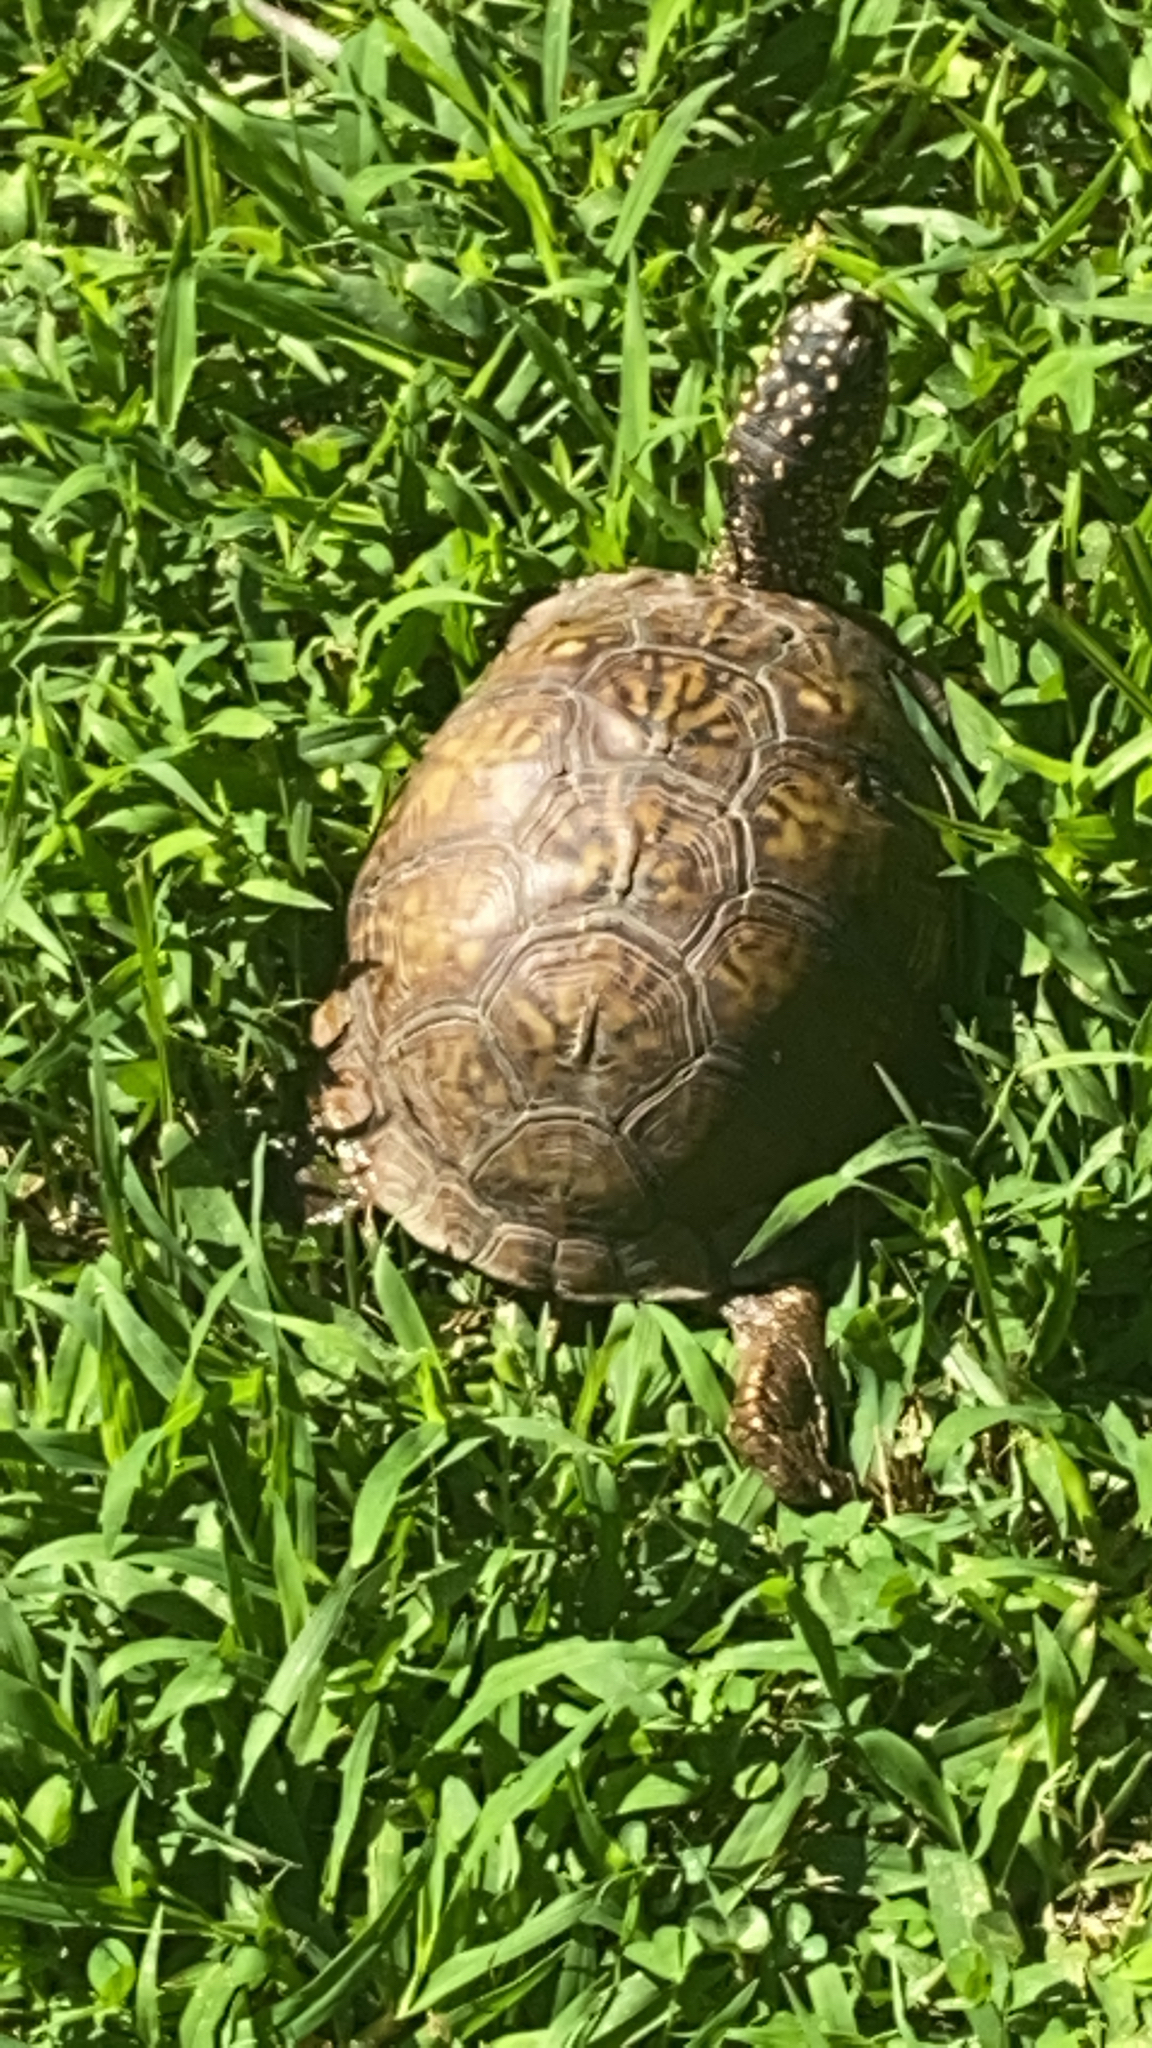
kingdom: Animalia
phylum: Chordata
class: Testudines
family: Emydidae
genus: Terrapene
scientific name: Terrapene carolina
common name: Common box turtle
